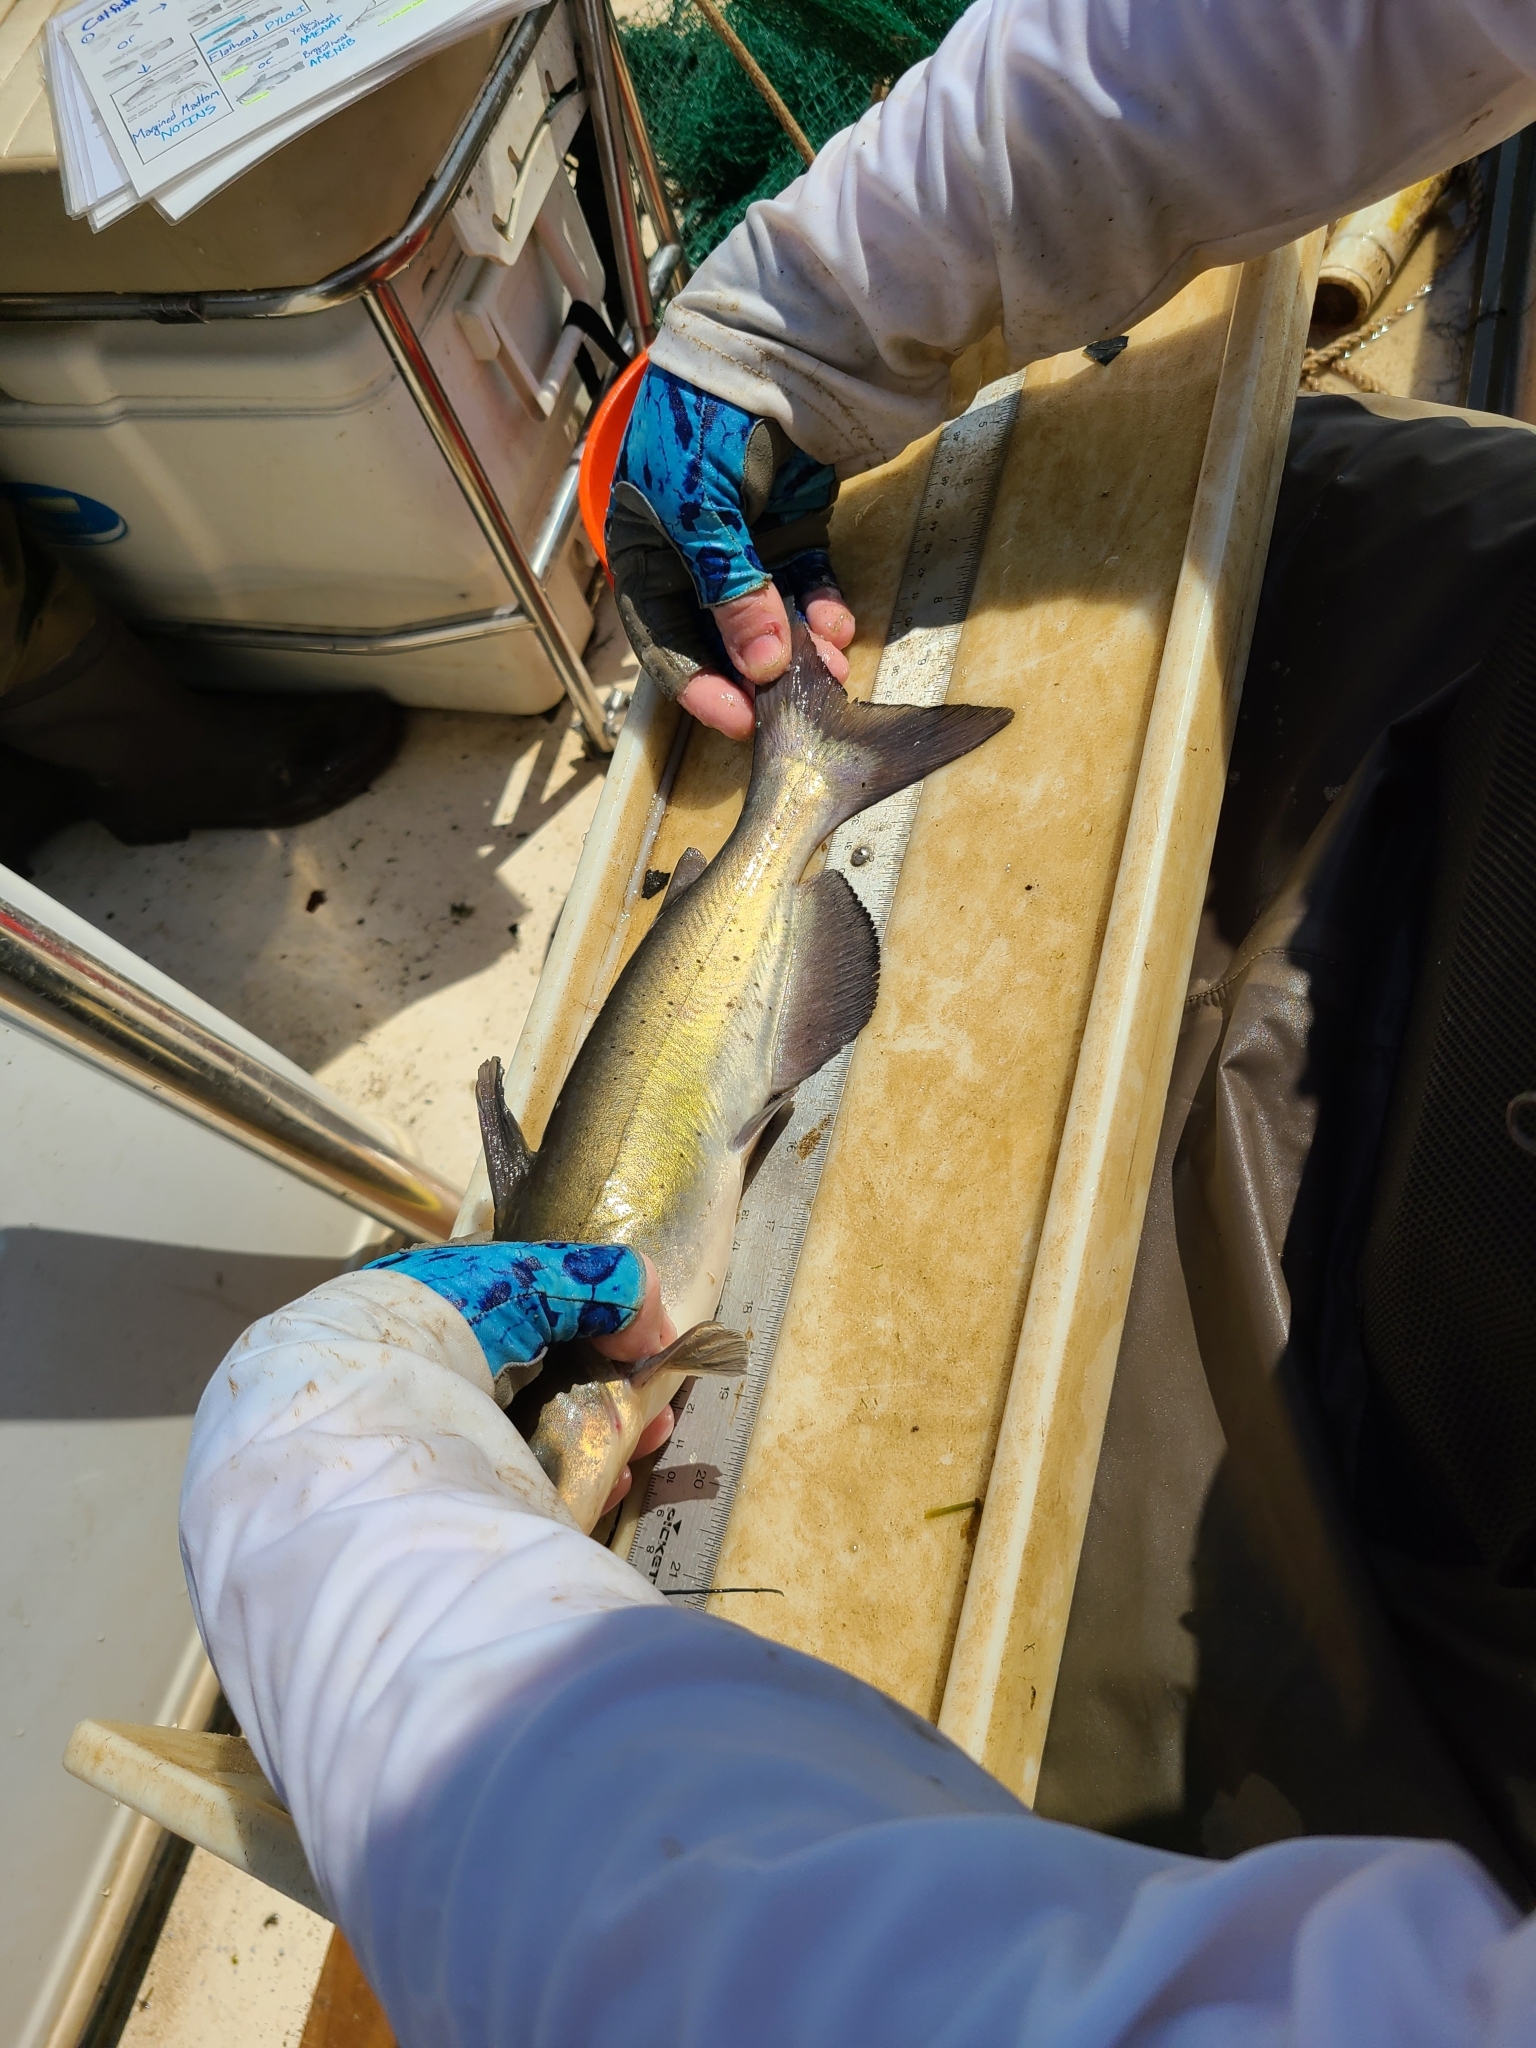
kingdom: Animalia
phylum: Chordata
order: Siluriformes
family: Ictaluridae
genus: Ictalurus
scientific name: Ictalurus punctatus
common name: Channel catfish
